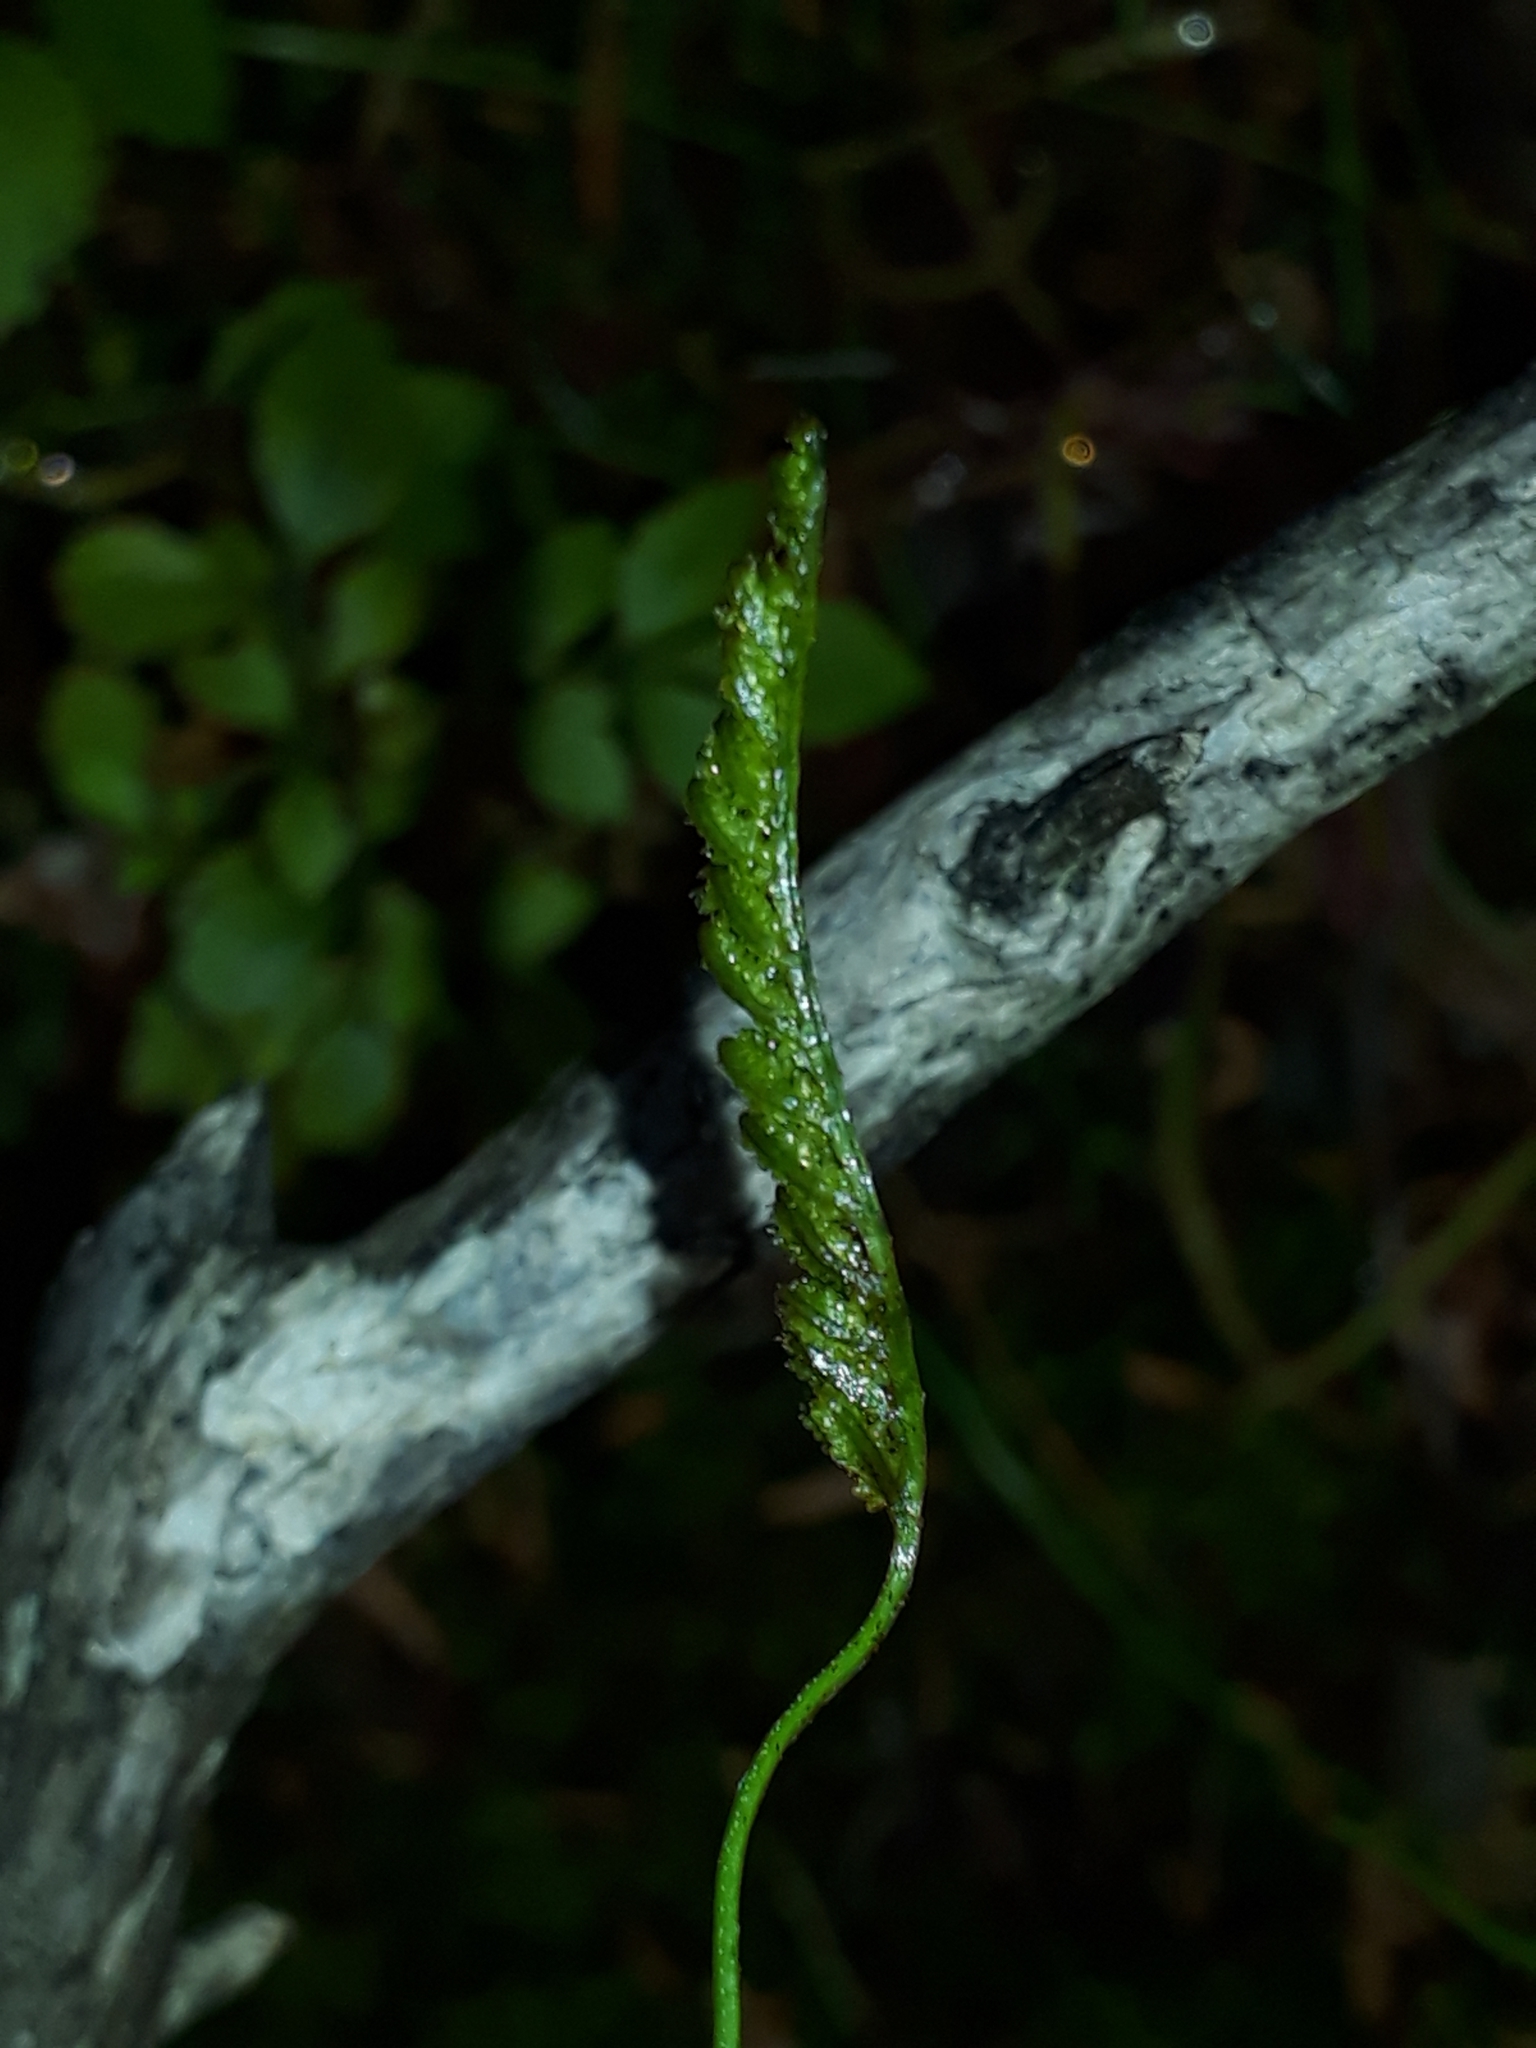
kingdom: Plantae
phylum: Tracheophyta
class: Polypodiopsida
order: Schizaeales
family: Schizaeaceae
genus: Microschizaea
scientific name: Microschizaea fistulosa
